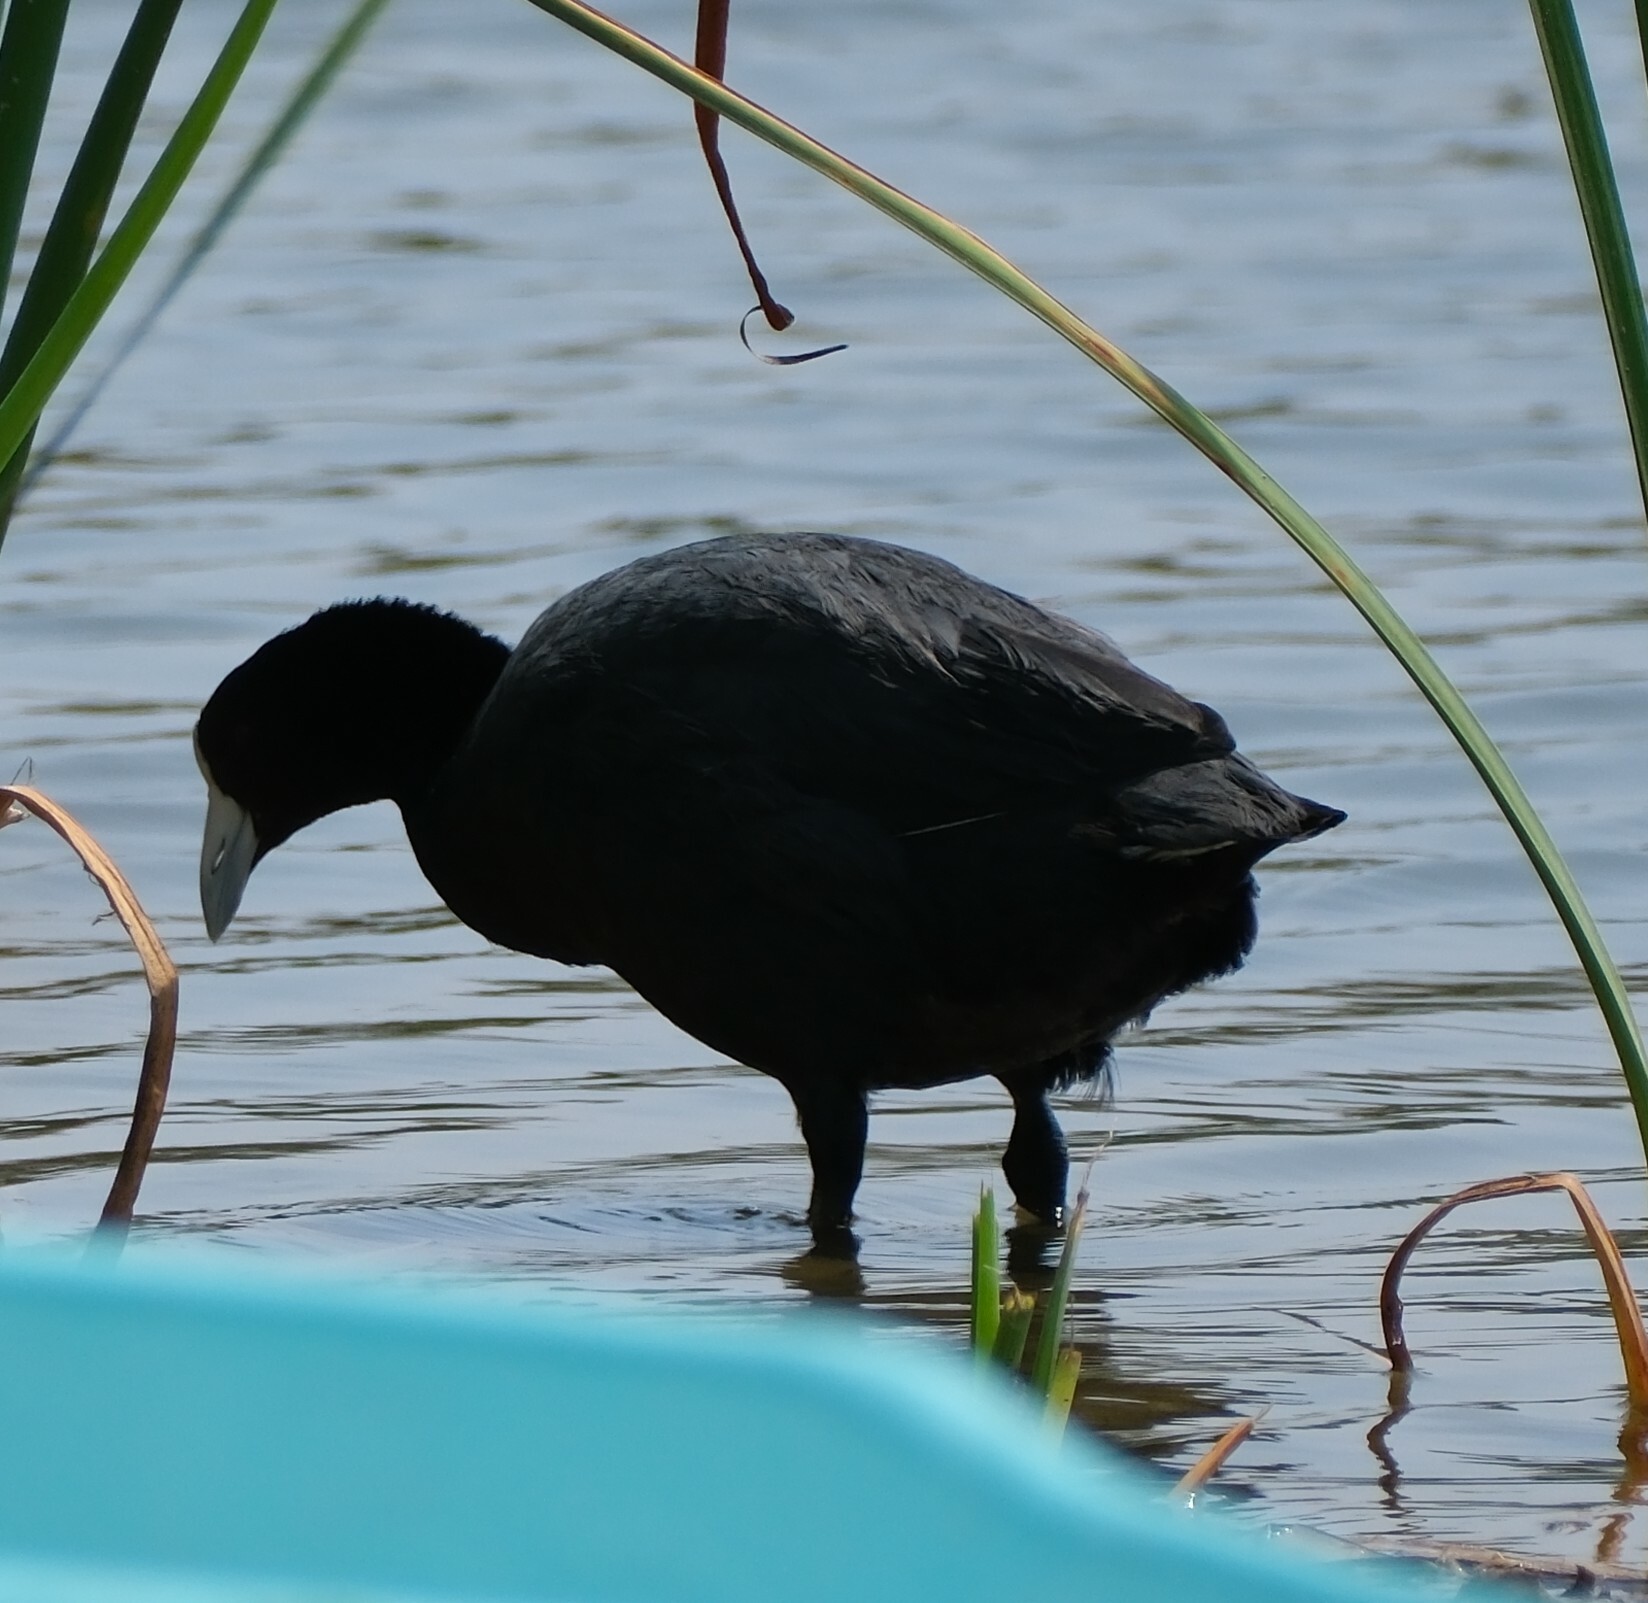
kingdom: Animalia
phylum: Chordata
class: Aves
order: Gruiformes
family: Rallidae
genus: Fulica
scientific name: Fulica ardesiaca
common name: Andean coot
